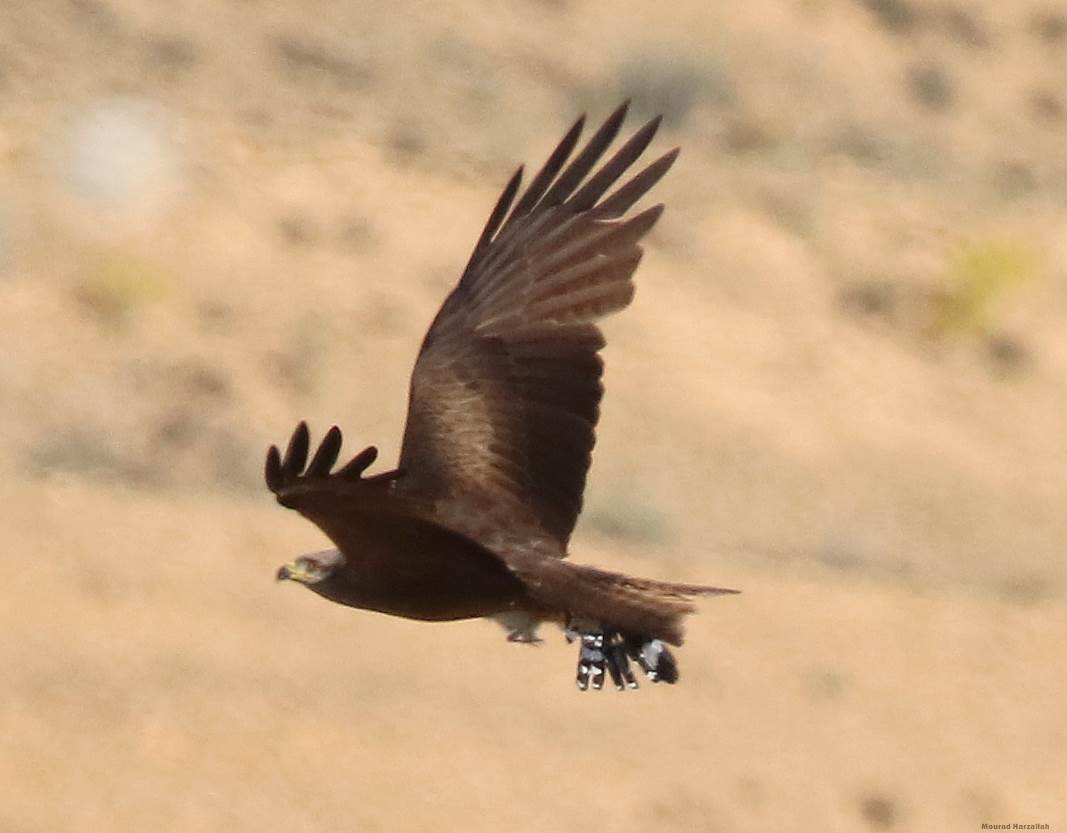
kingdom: Animalia
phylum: Chordata
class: Aves
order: Accipitriformes
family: Accipitridae
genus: Milvus
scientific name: Milvus migrans
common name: Black kite
